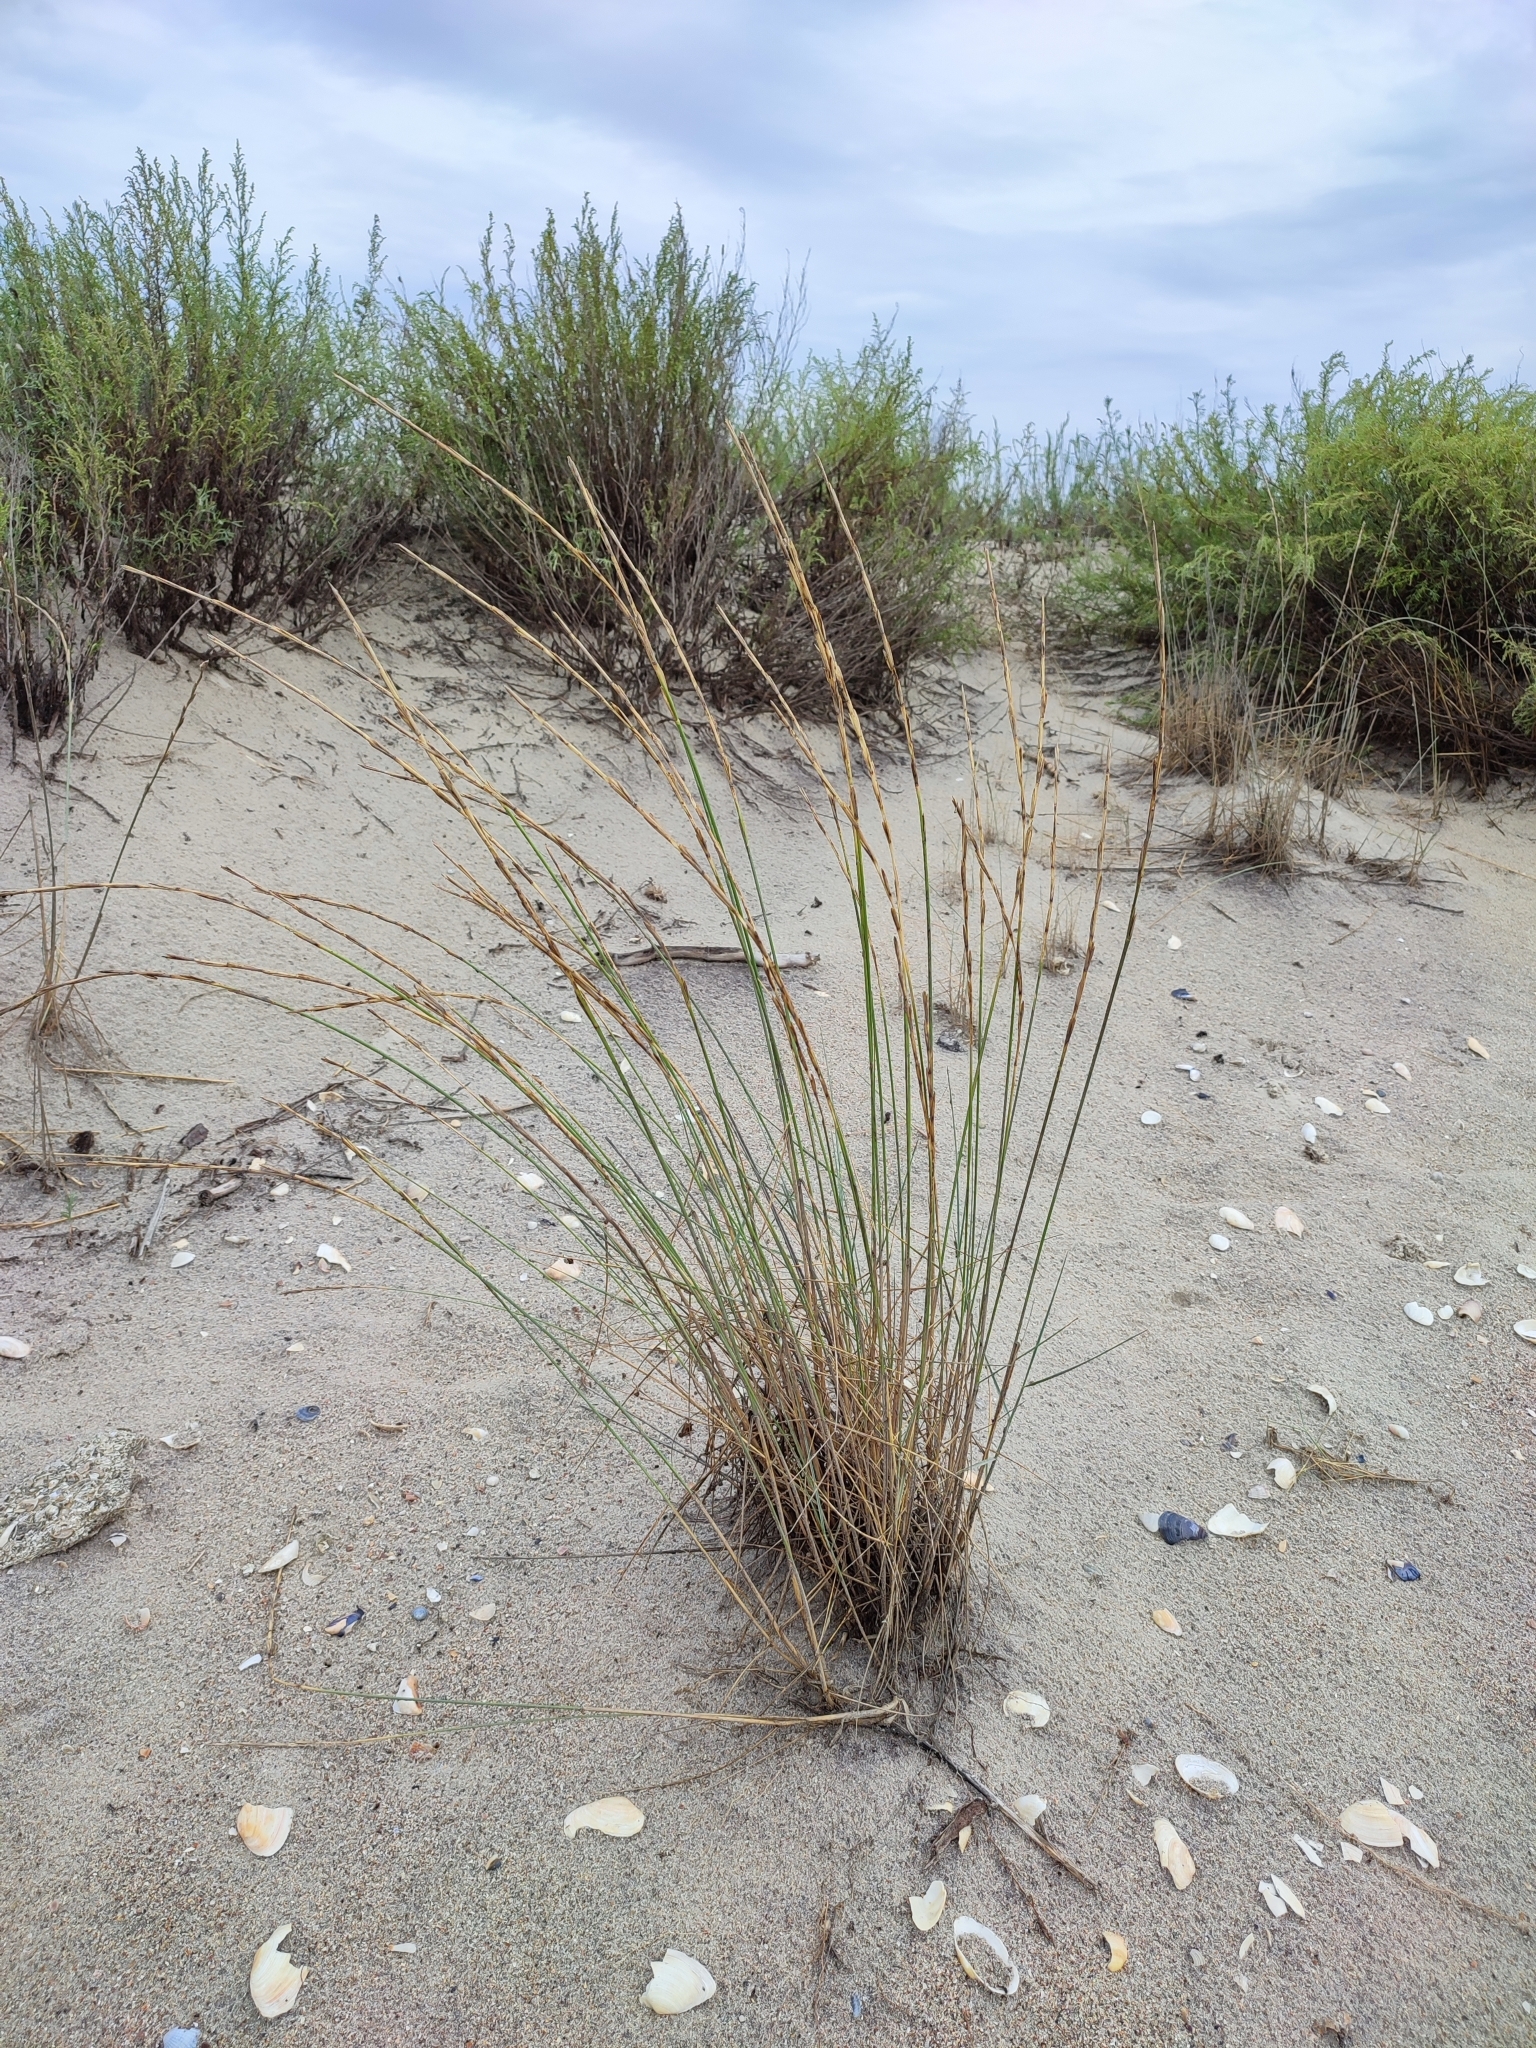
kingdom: Plantae
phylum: Tracheophyta
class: Liliopsida
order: Poales
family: Poaceae
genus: Thinopyrum
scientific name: Thinopyrum bessarabicum
